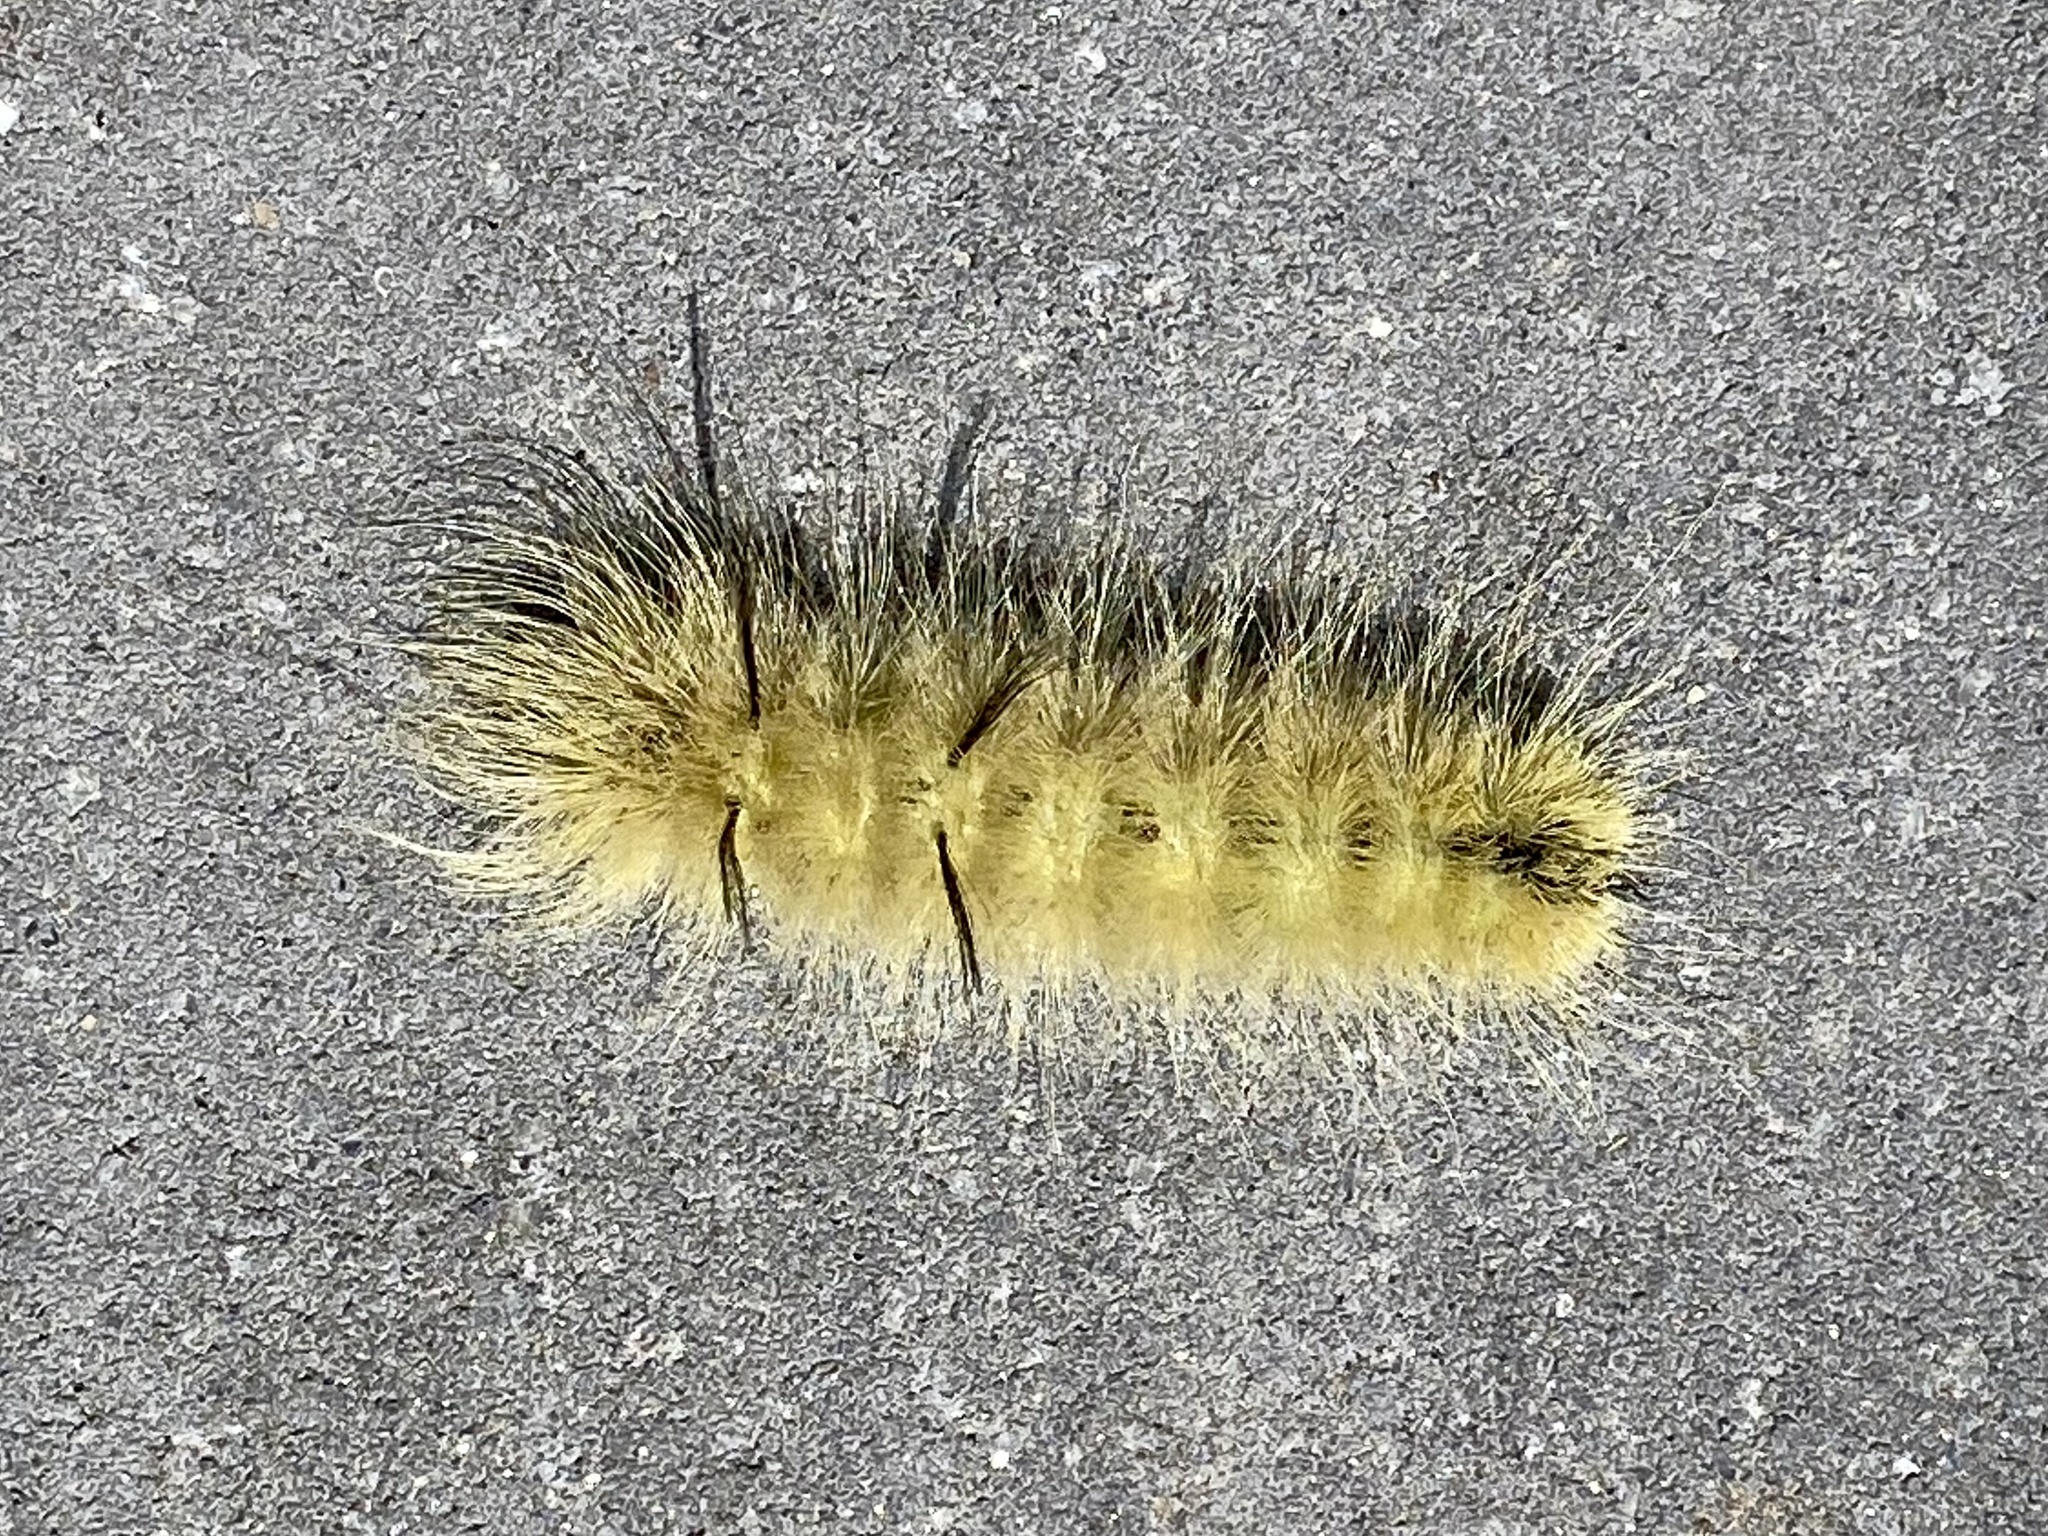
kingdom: Animalia
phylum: Arthropoda
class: Insecta
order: Lepidoptera
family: Noctuidae
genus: Acronicta
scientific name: Acronicta americana
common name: American dagger
